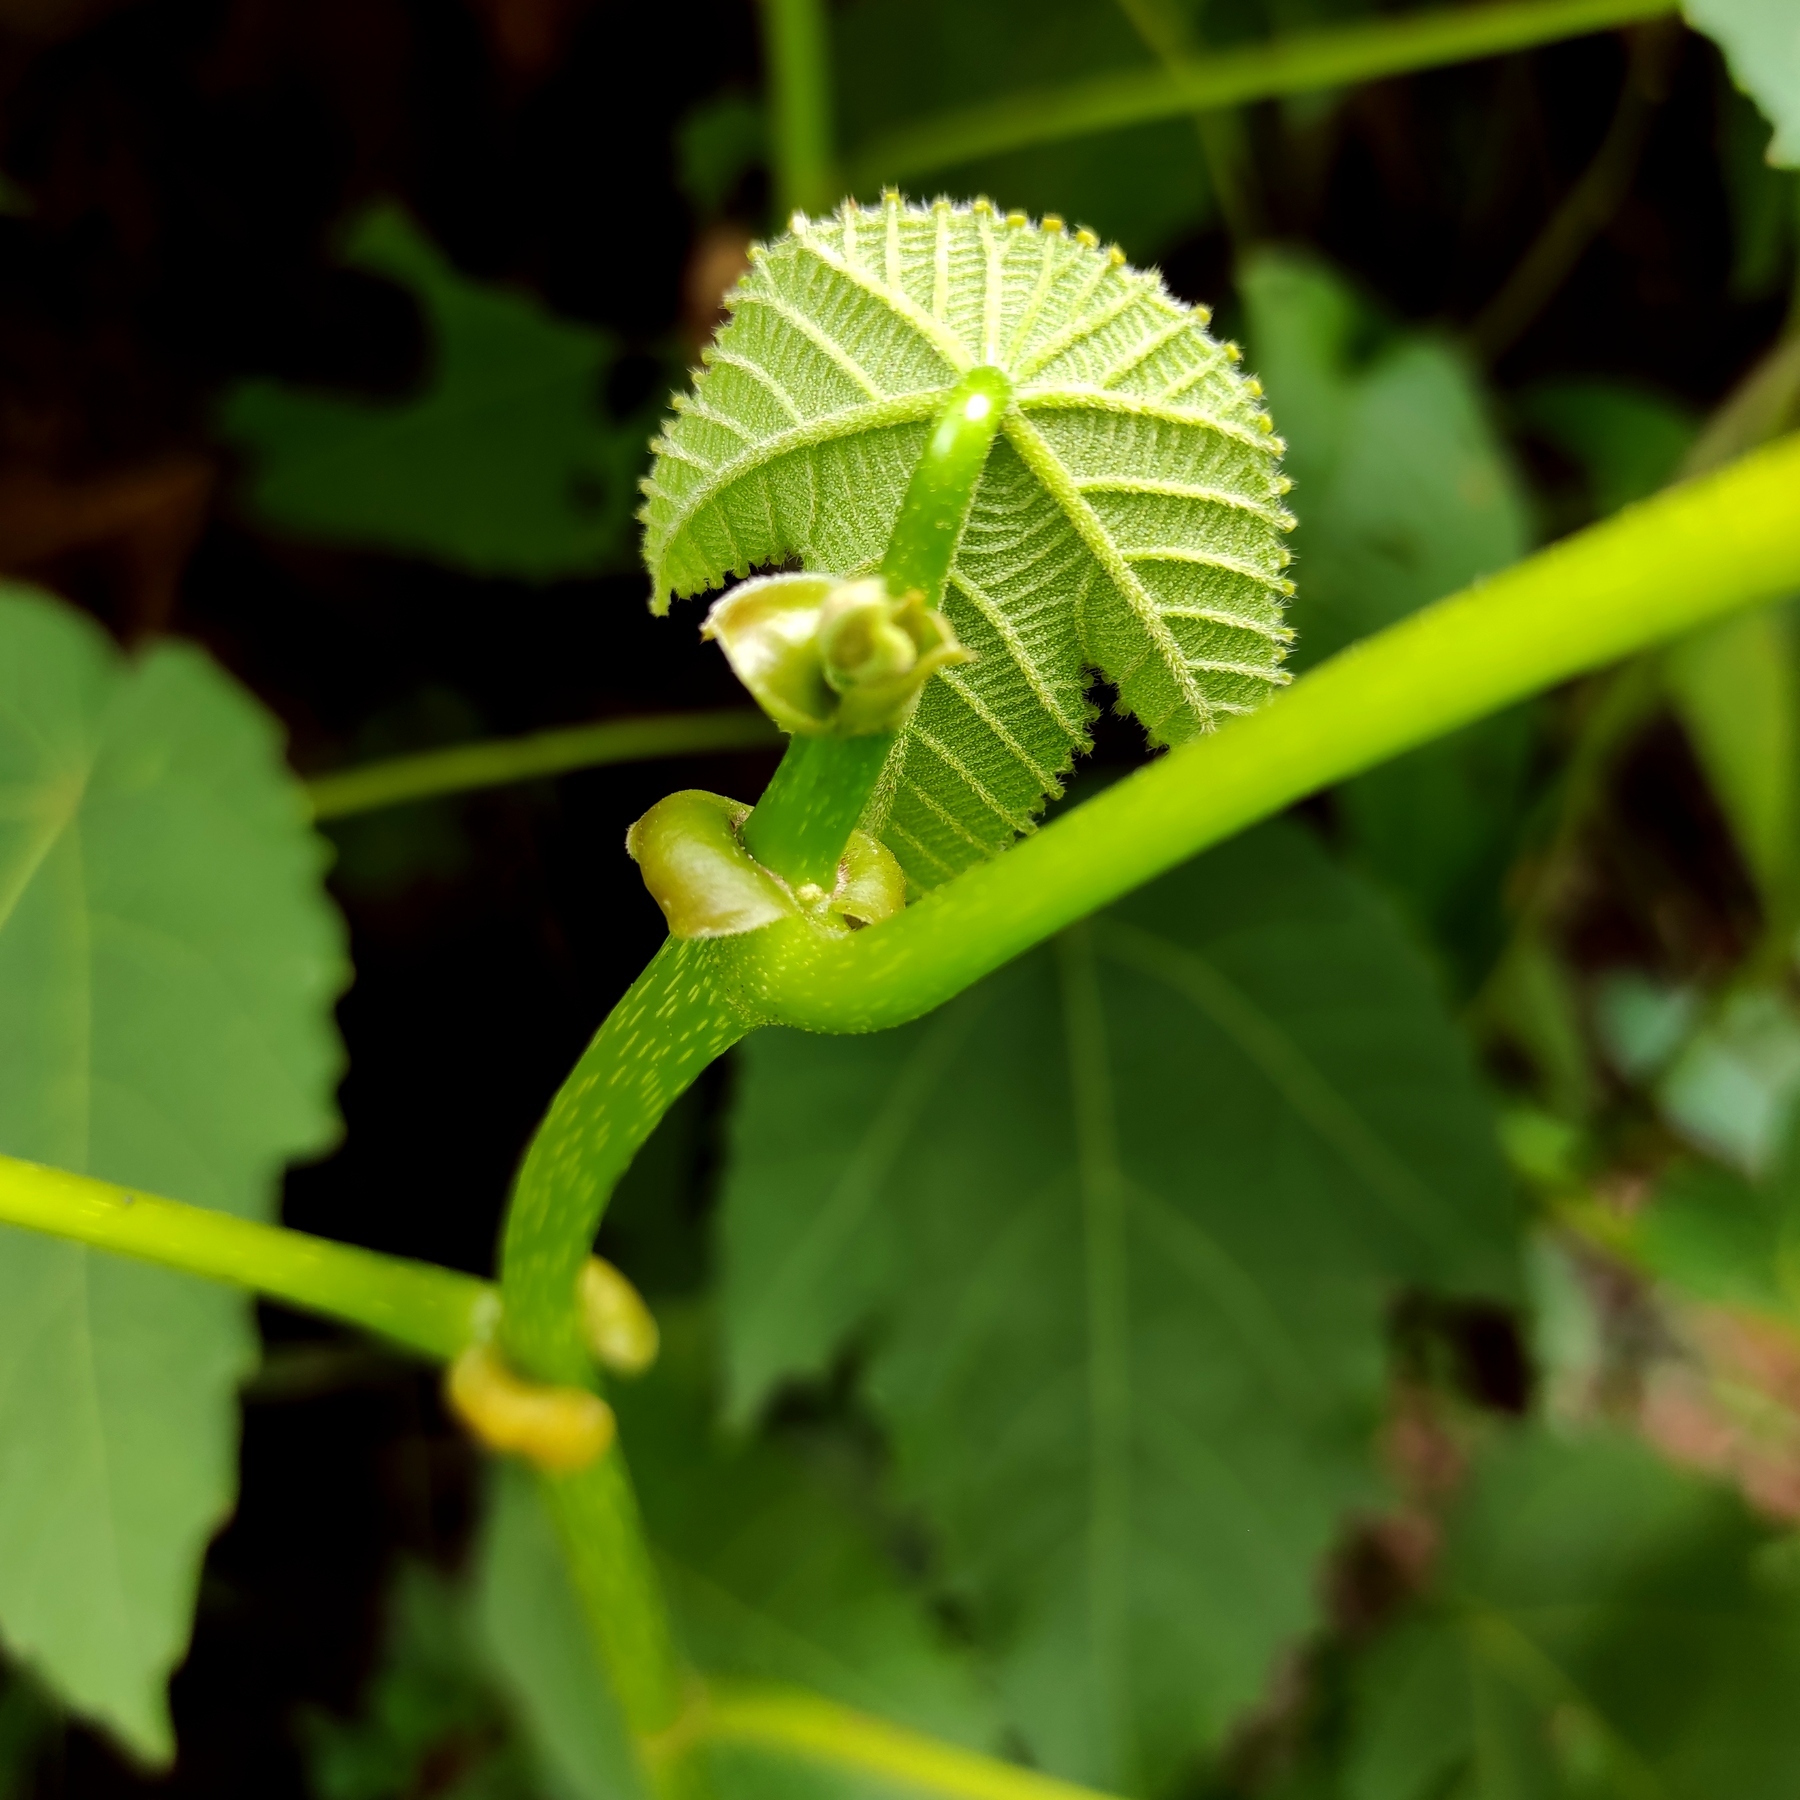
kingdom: Plantae
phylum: Tracheophyta
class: Magnoliopsida
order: Malpighiales
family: Euphorbiaceae
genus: Macaranga
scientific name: Macaranga triloba
